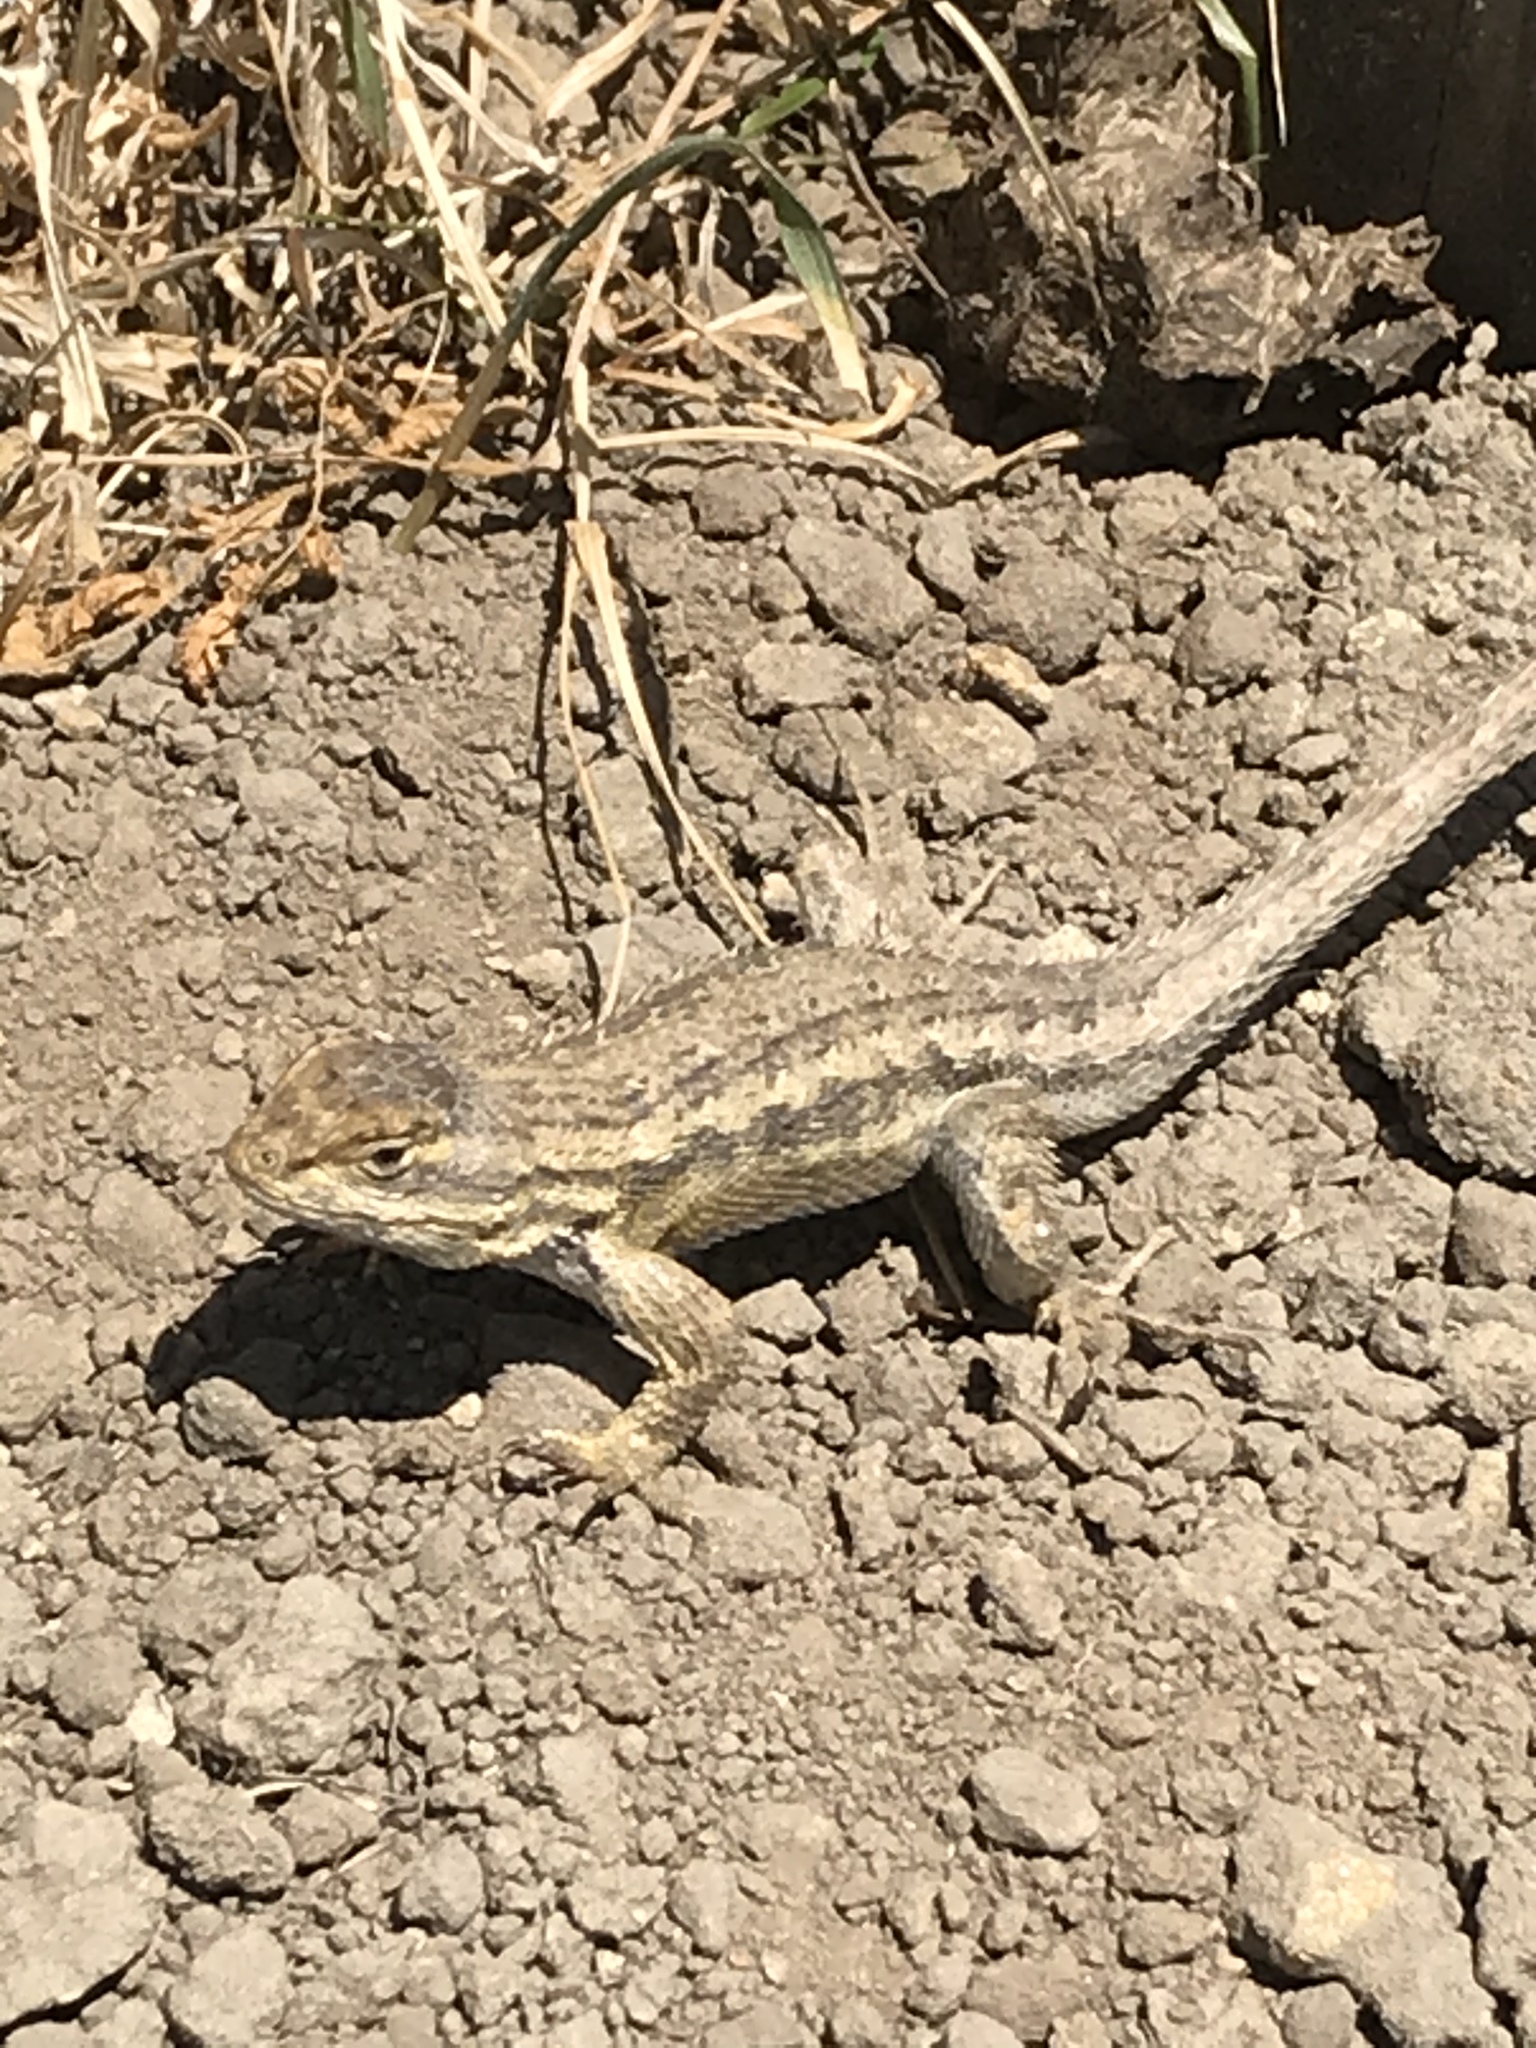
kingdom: Animalia
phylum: Chordata
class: Squamata
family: Phrynosomatidae
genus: Sceloporus
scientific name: Sceloporus occidentalis
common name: Western fence lizard
